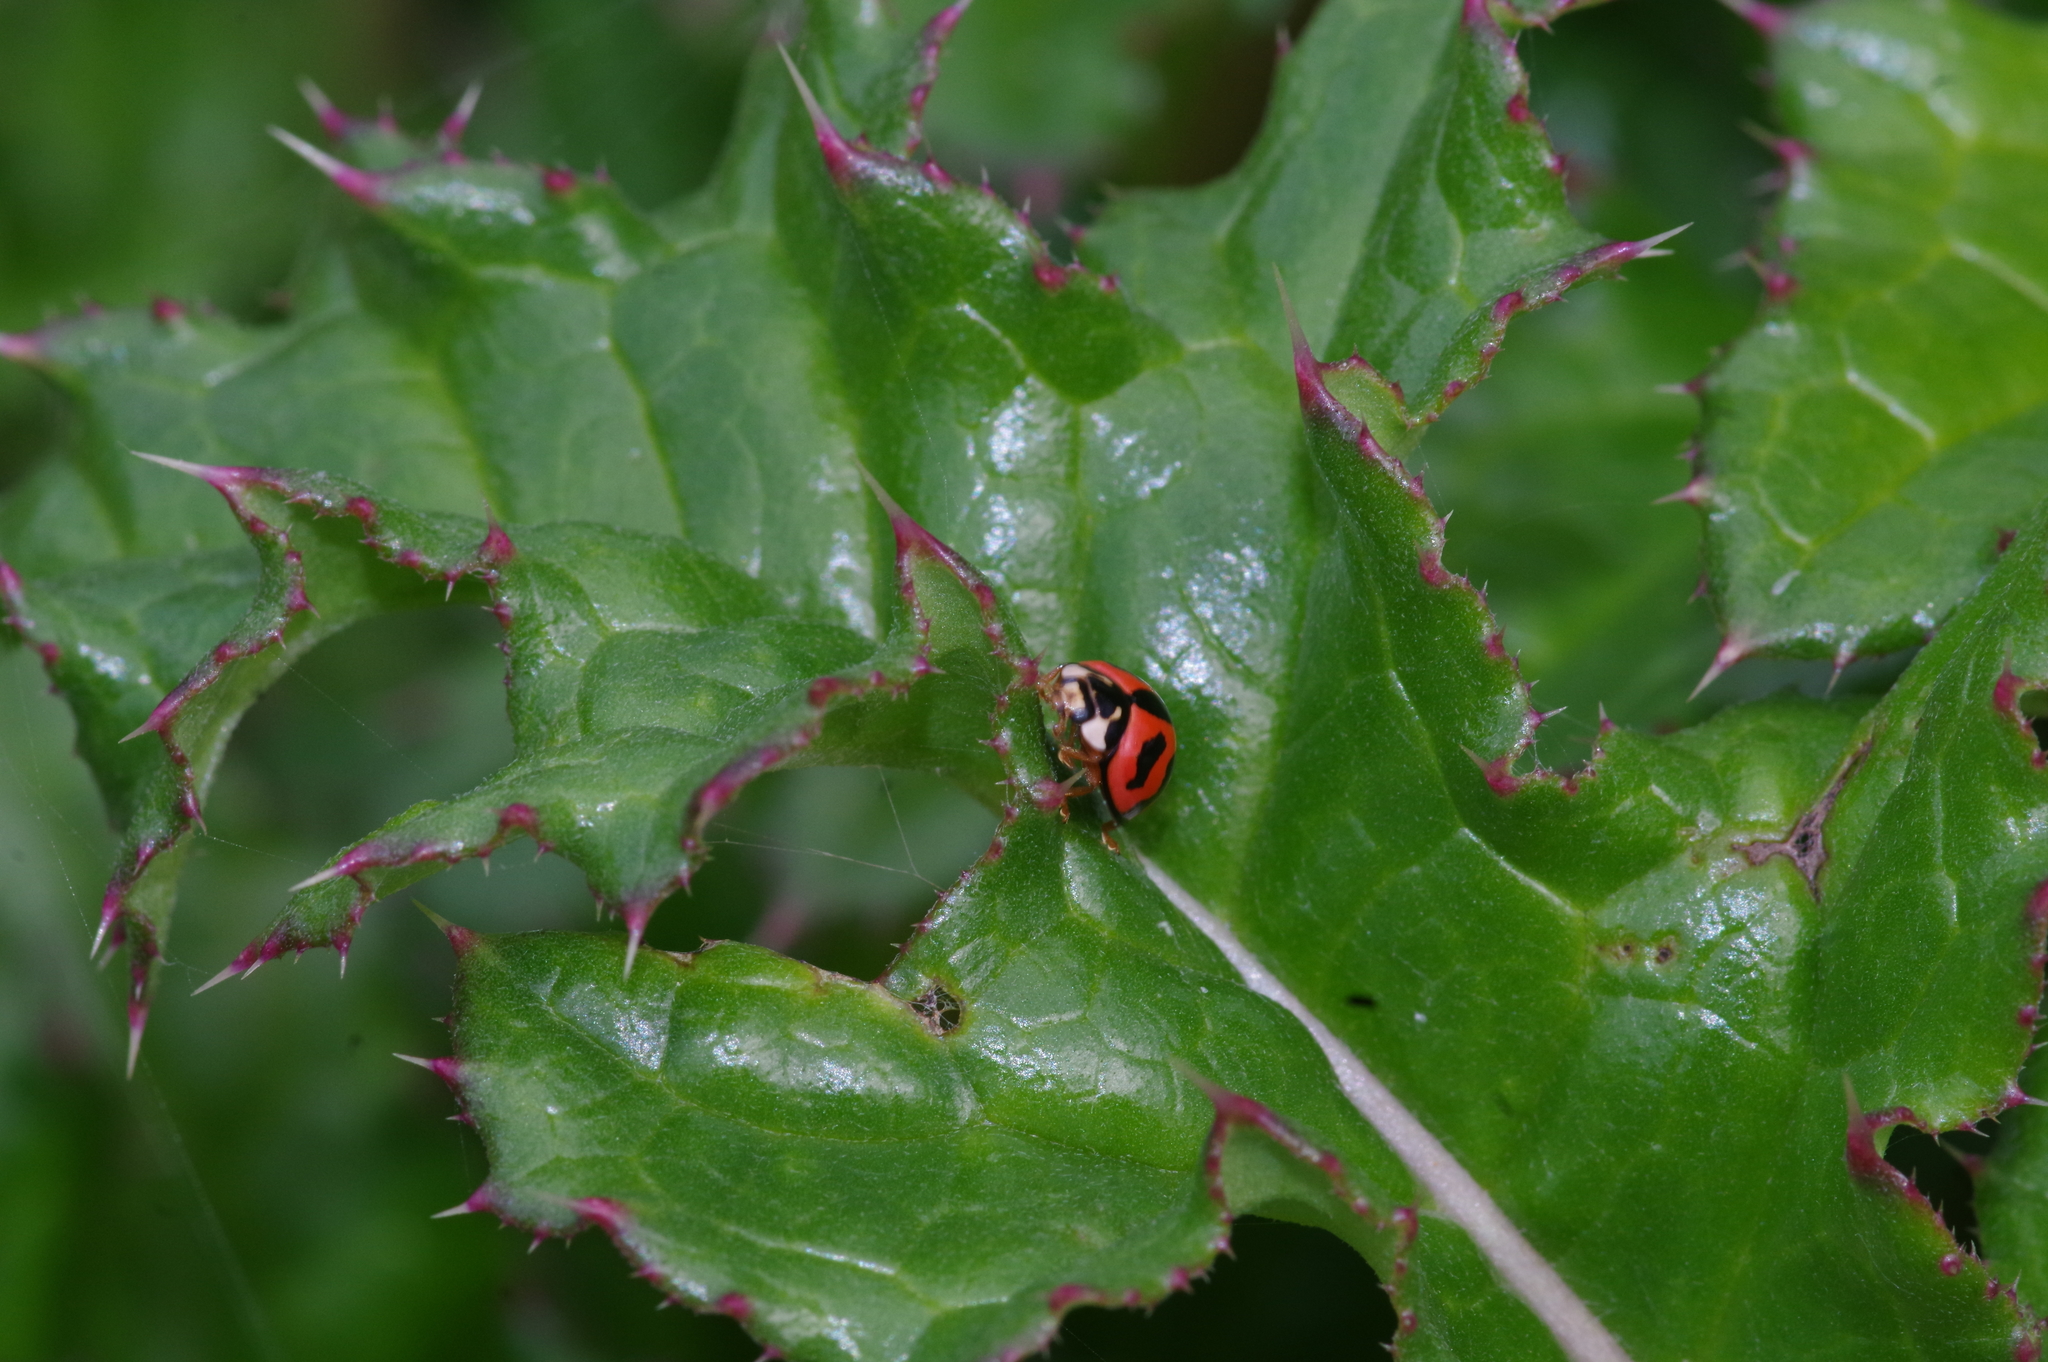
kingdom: Animalia
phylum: Arthropoda
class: Insecta
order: Coleoptera
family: Coccinellidae
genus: Cheilomenes
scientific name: Cheilomenes sexmaculata
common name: Ladybird beetle
